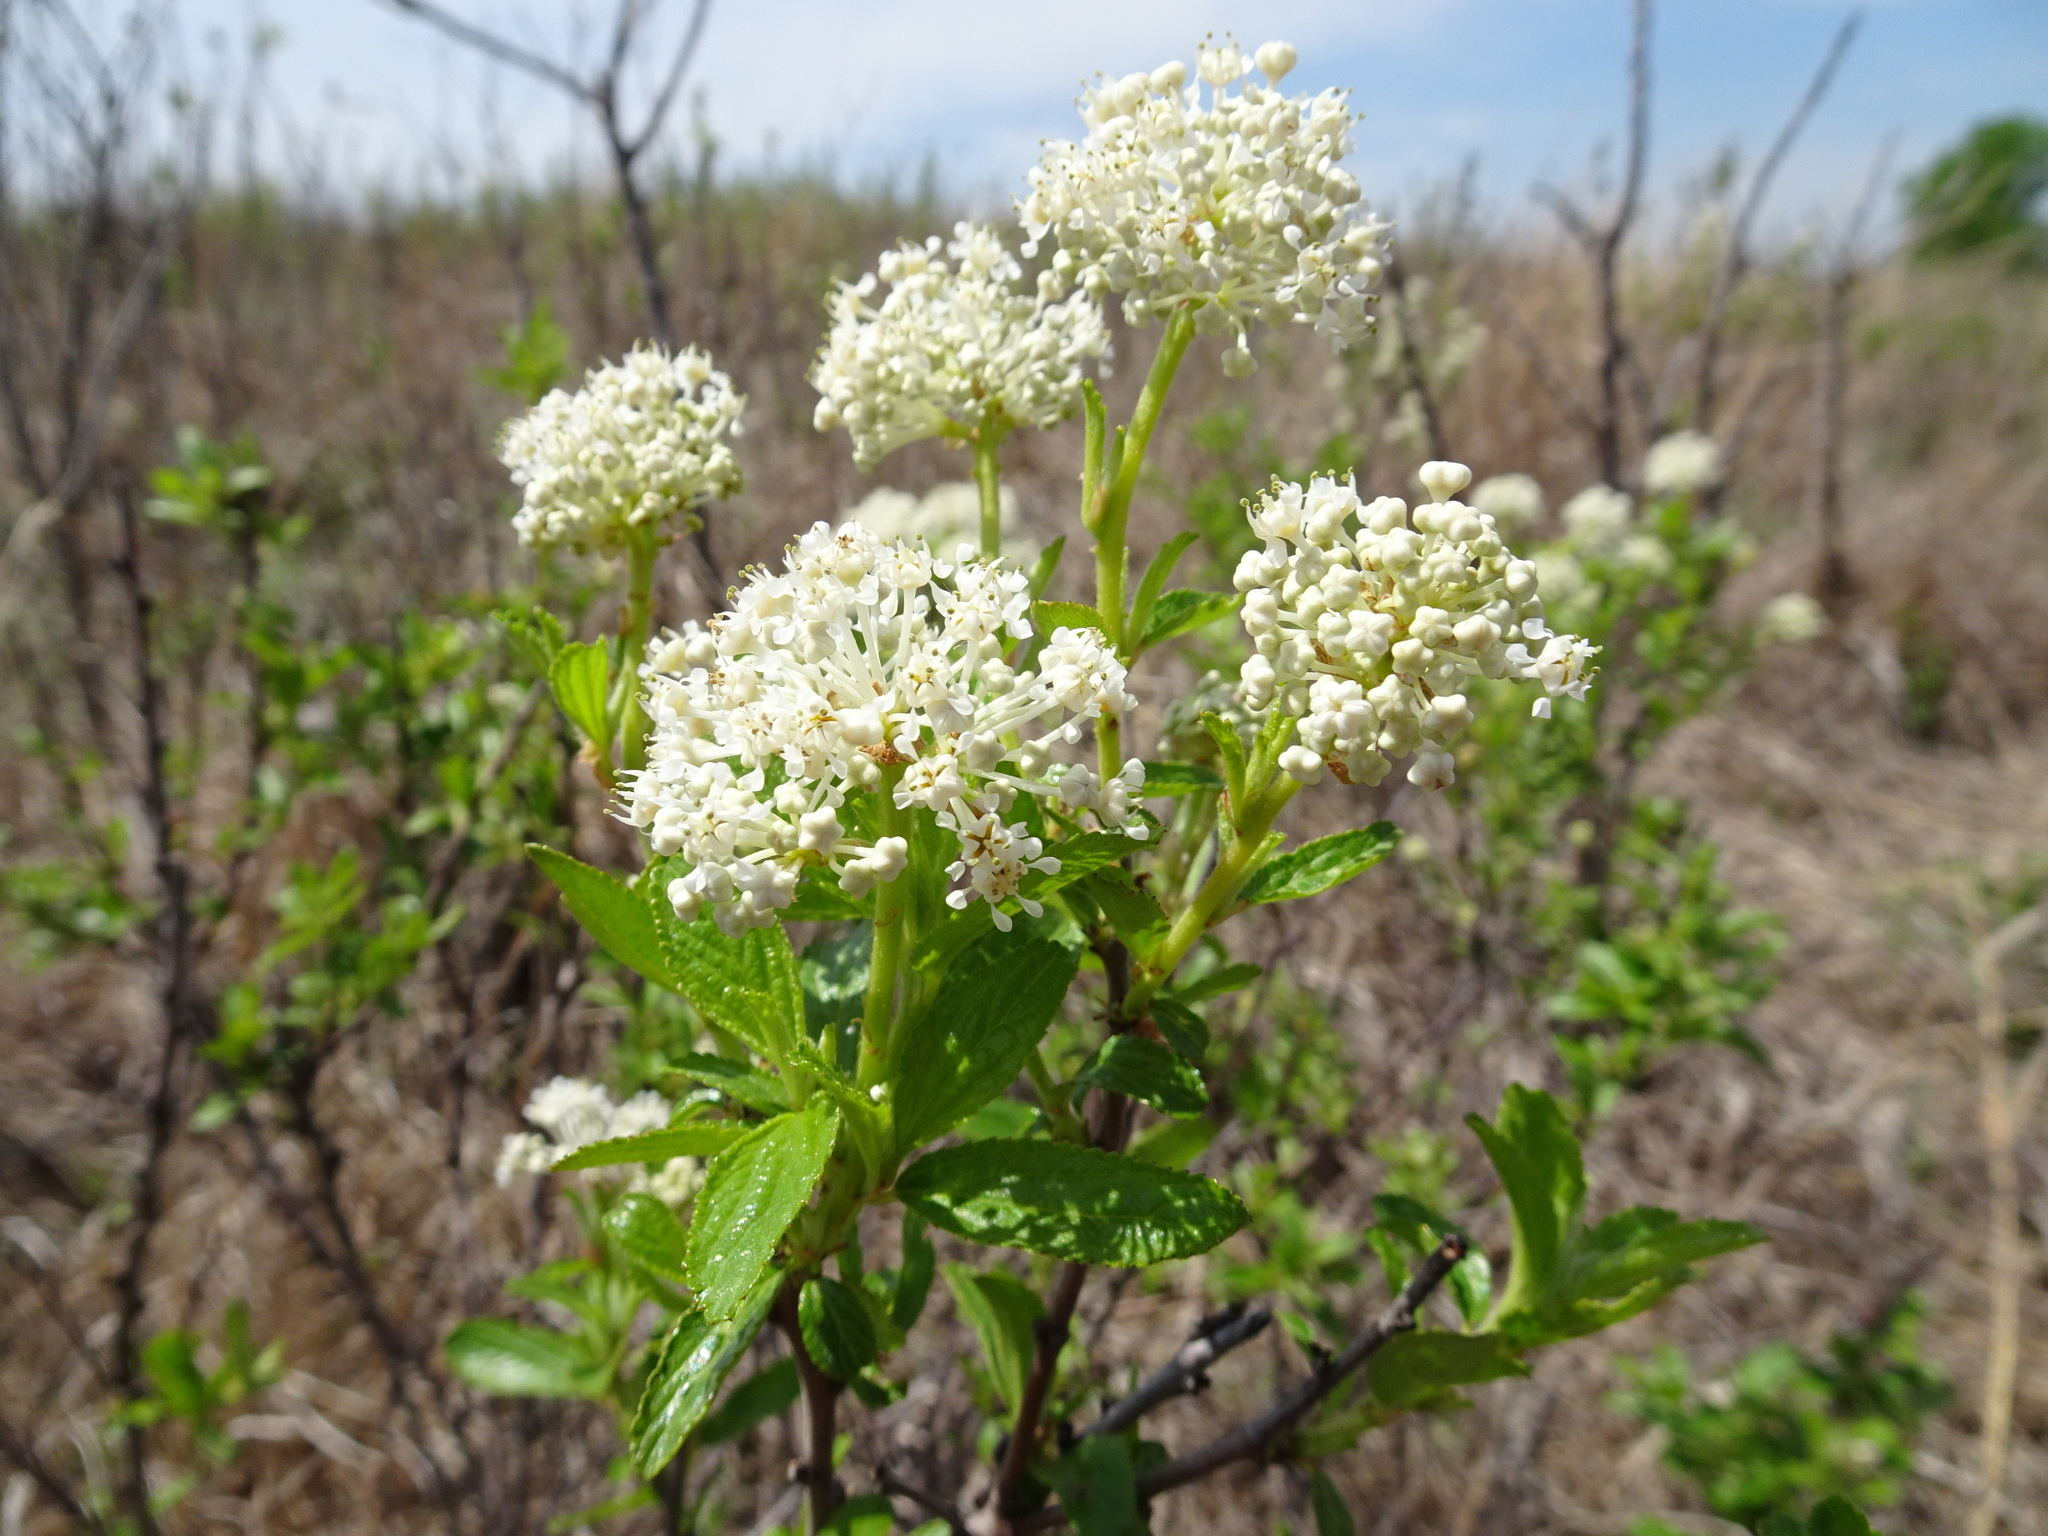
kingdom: Plantae
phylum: Tracheophyta
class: Magnoliopsida
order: Rosales
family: Rhamnaceae
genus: Ceanothus
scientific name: Ceanothus herbaceus
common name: Inland ceanothus
